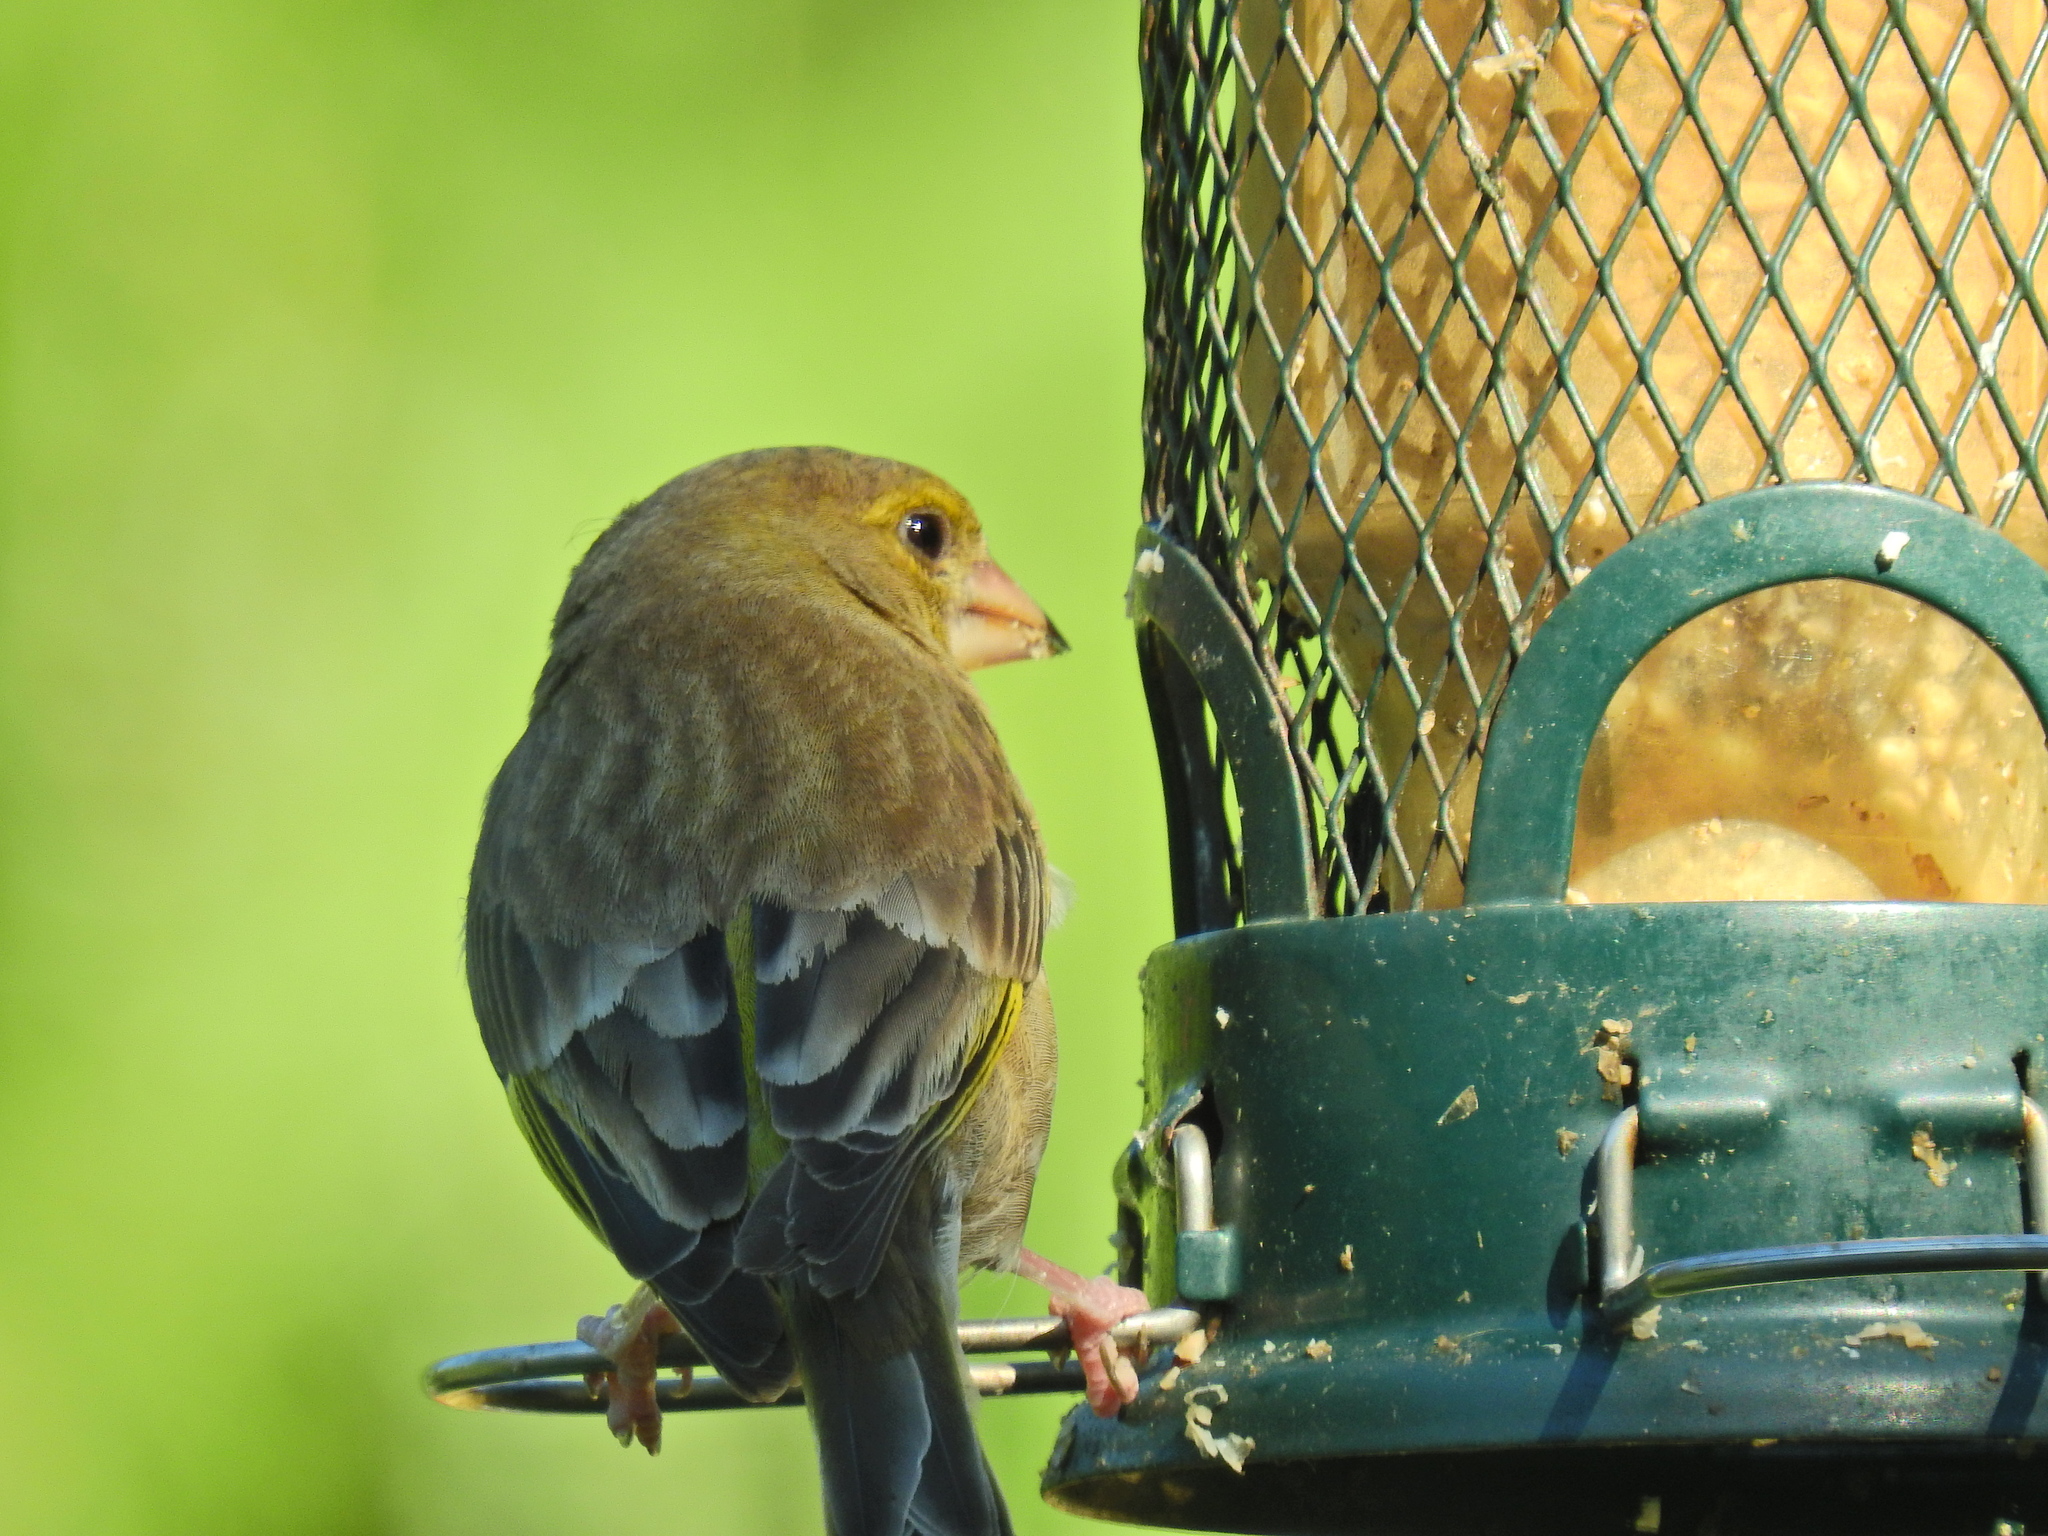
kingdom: Plantae
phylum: Tracheophyta
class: Liliopsida
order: Poales
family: Poaceae
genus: Chloris
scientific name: Chloris chloris
